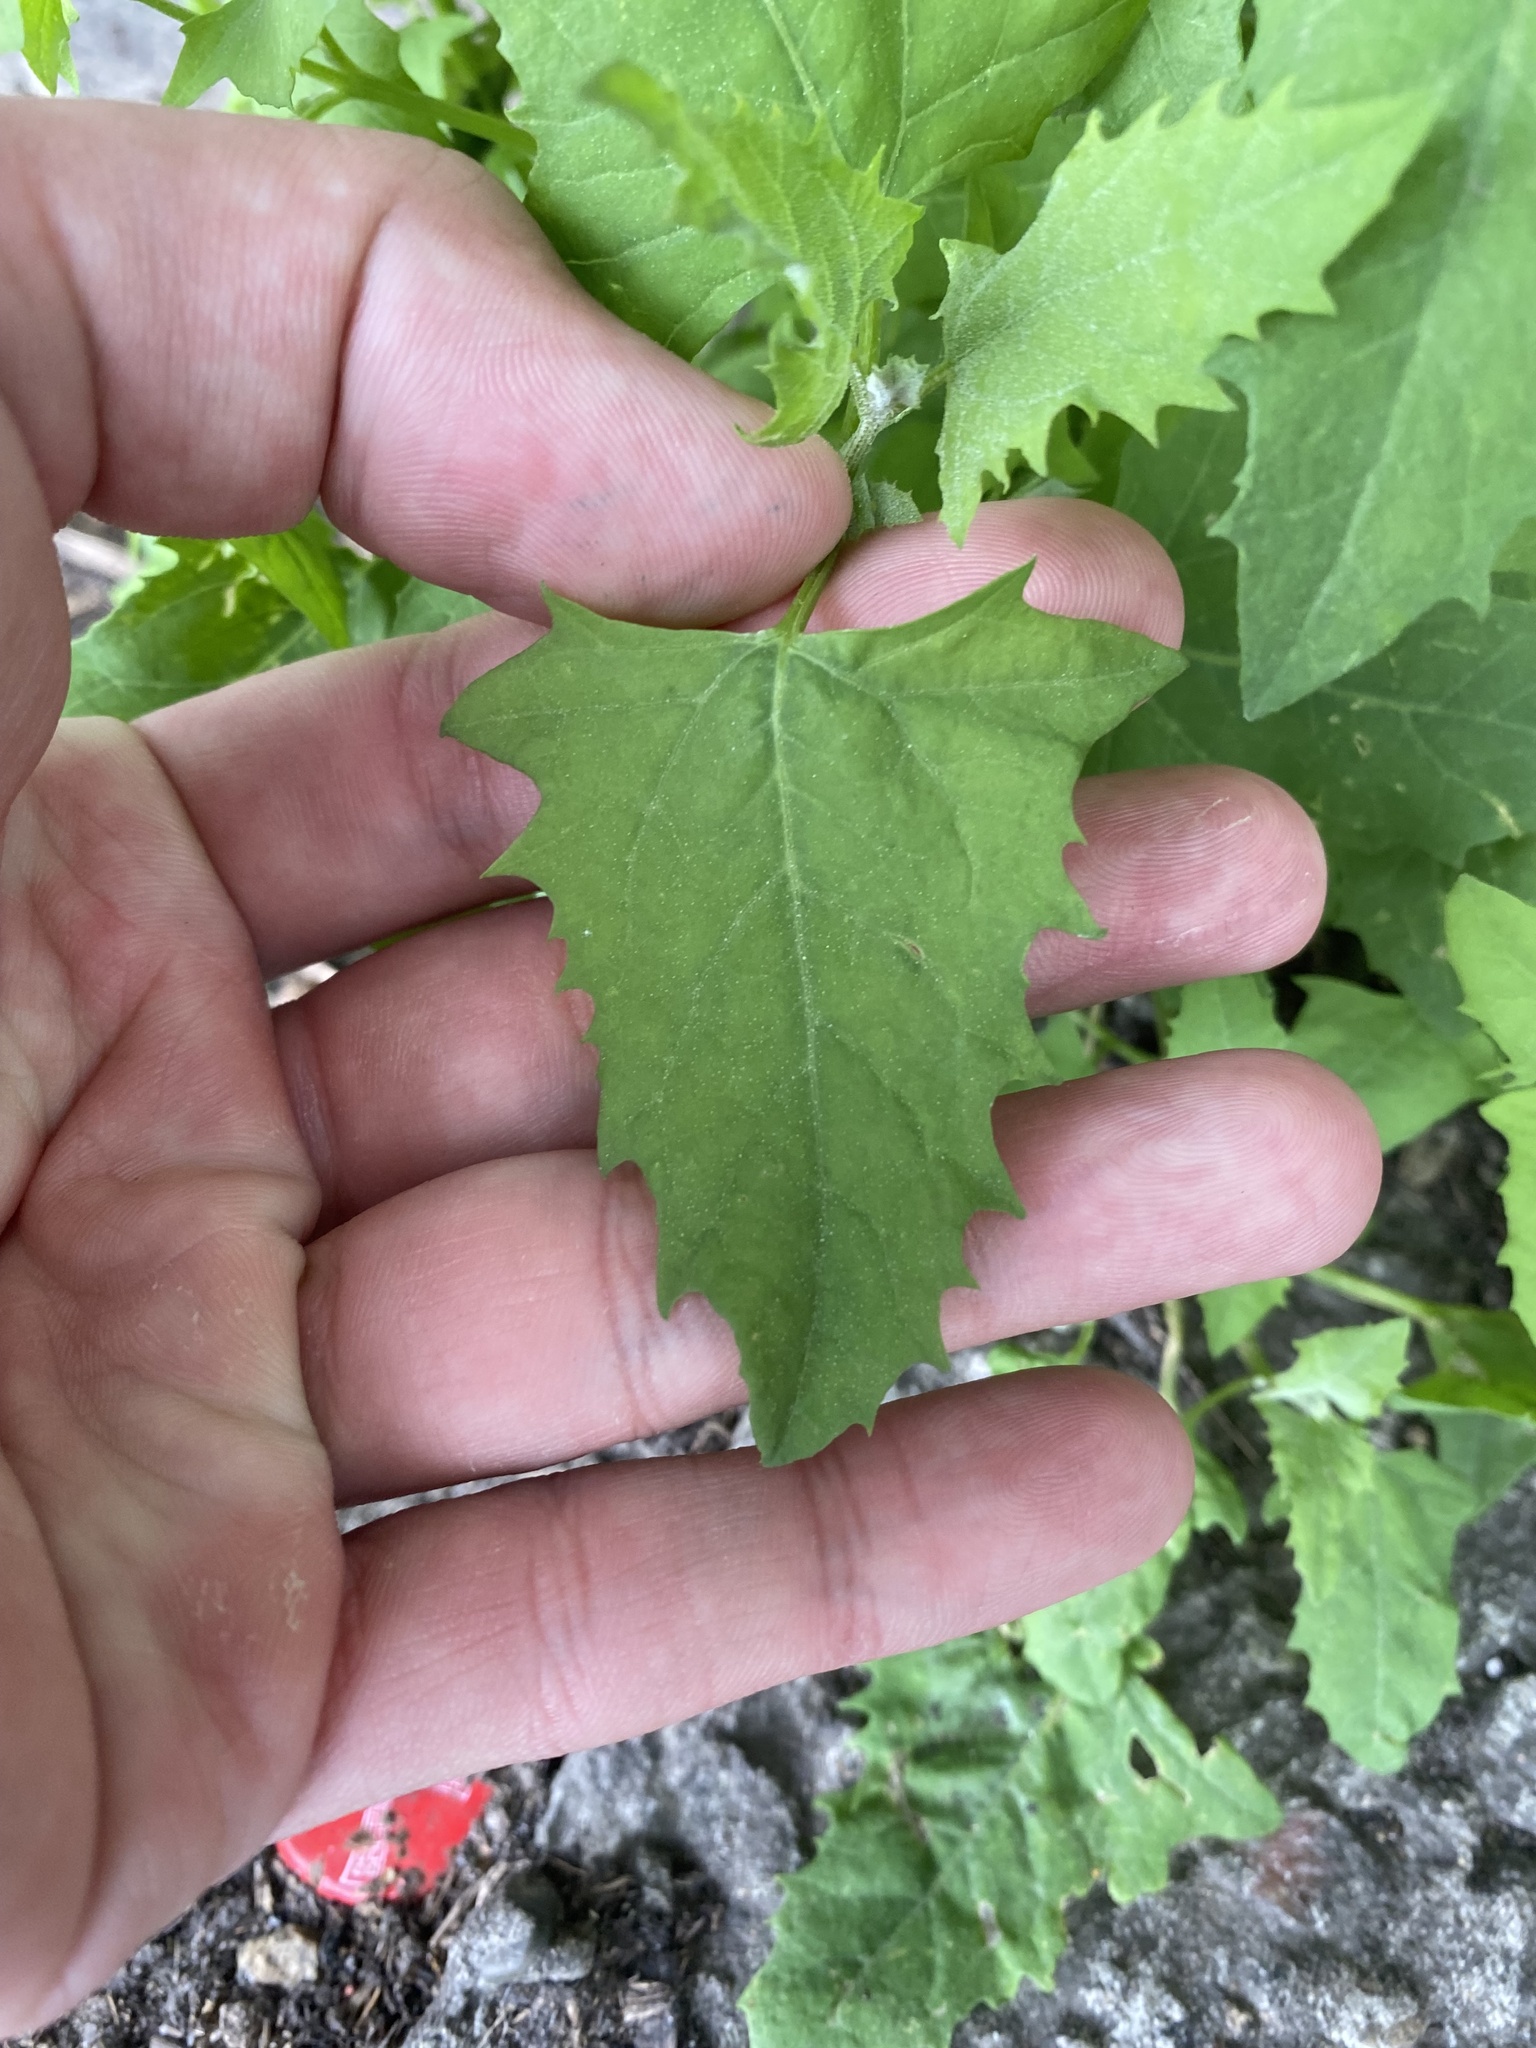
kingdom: Plantae
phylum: Tracheophyta
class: Magnoliopsida
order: Caryophyllales
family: Amaranthaceae
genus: Atriplex
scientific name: Atriplex patula
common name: Common orache
